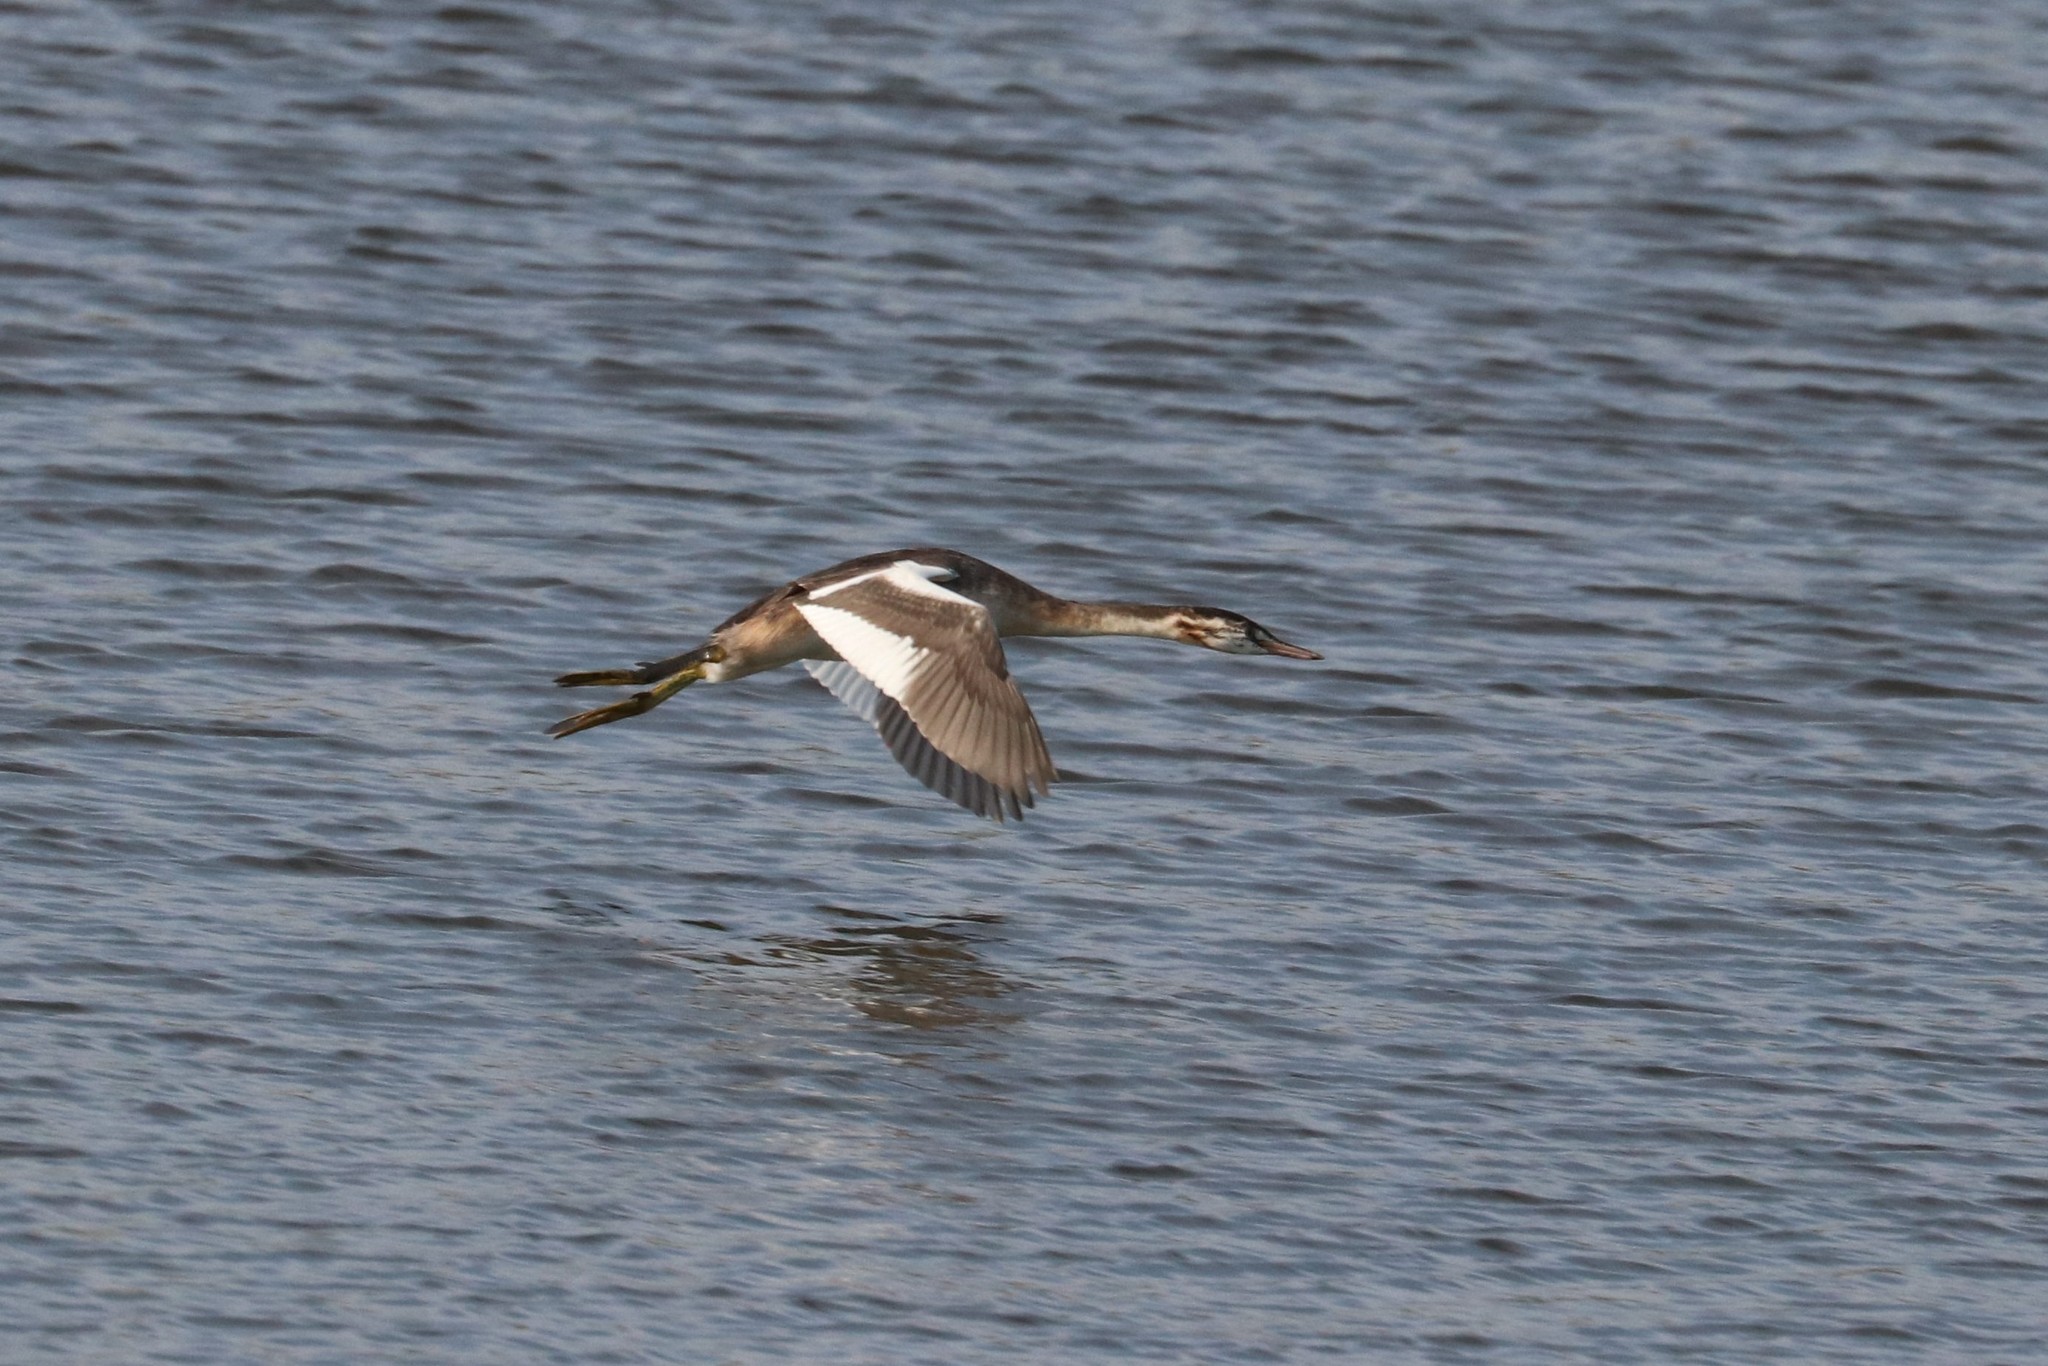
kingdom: Animalia
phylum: Chordata
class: Aves
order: Podicipediformes
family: Podicipedidae
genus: Podiceps
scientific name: Podiceps cristatus
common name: Great crested grebe
